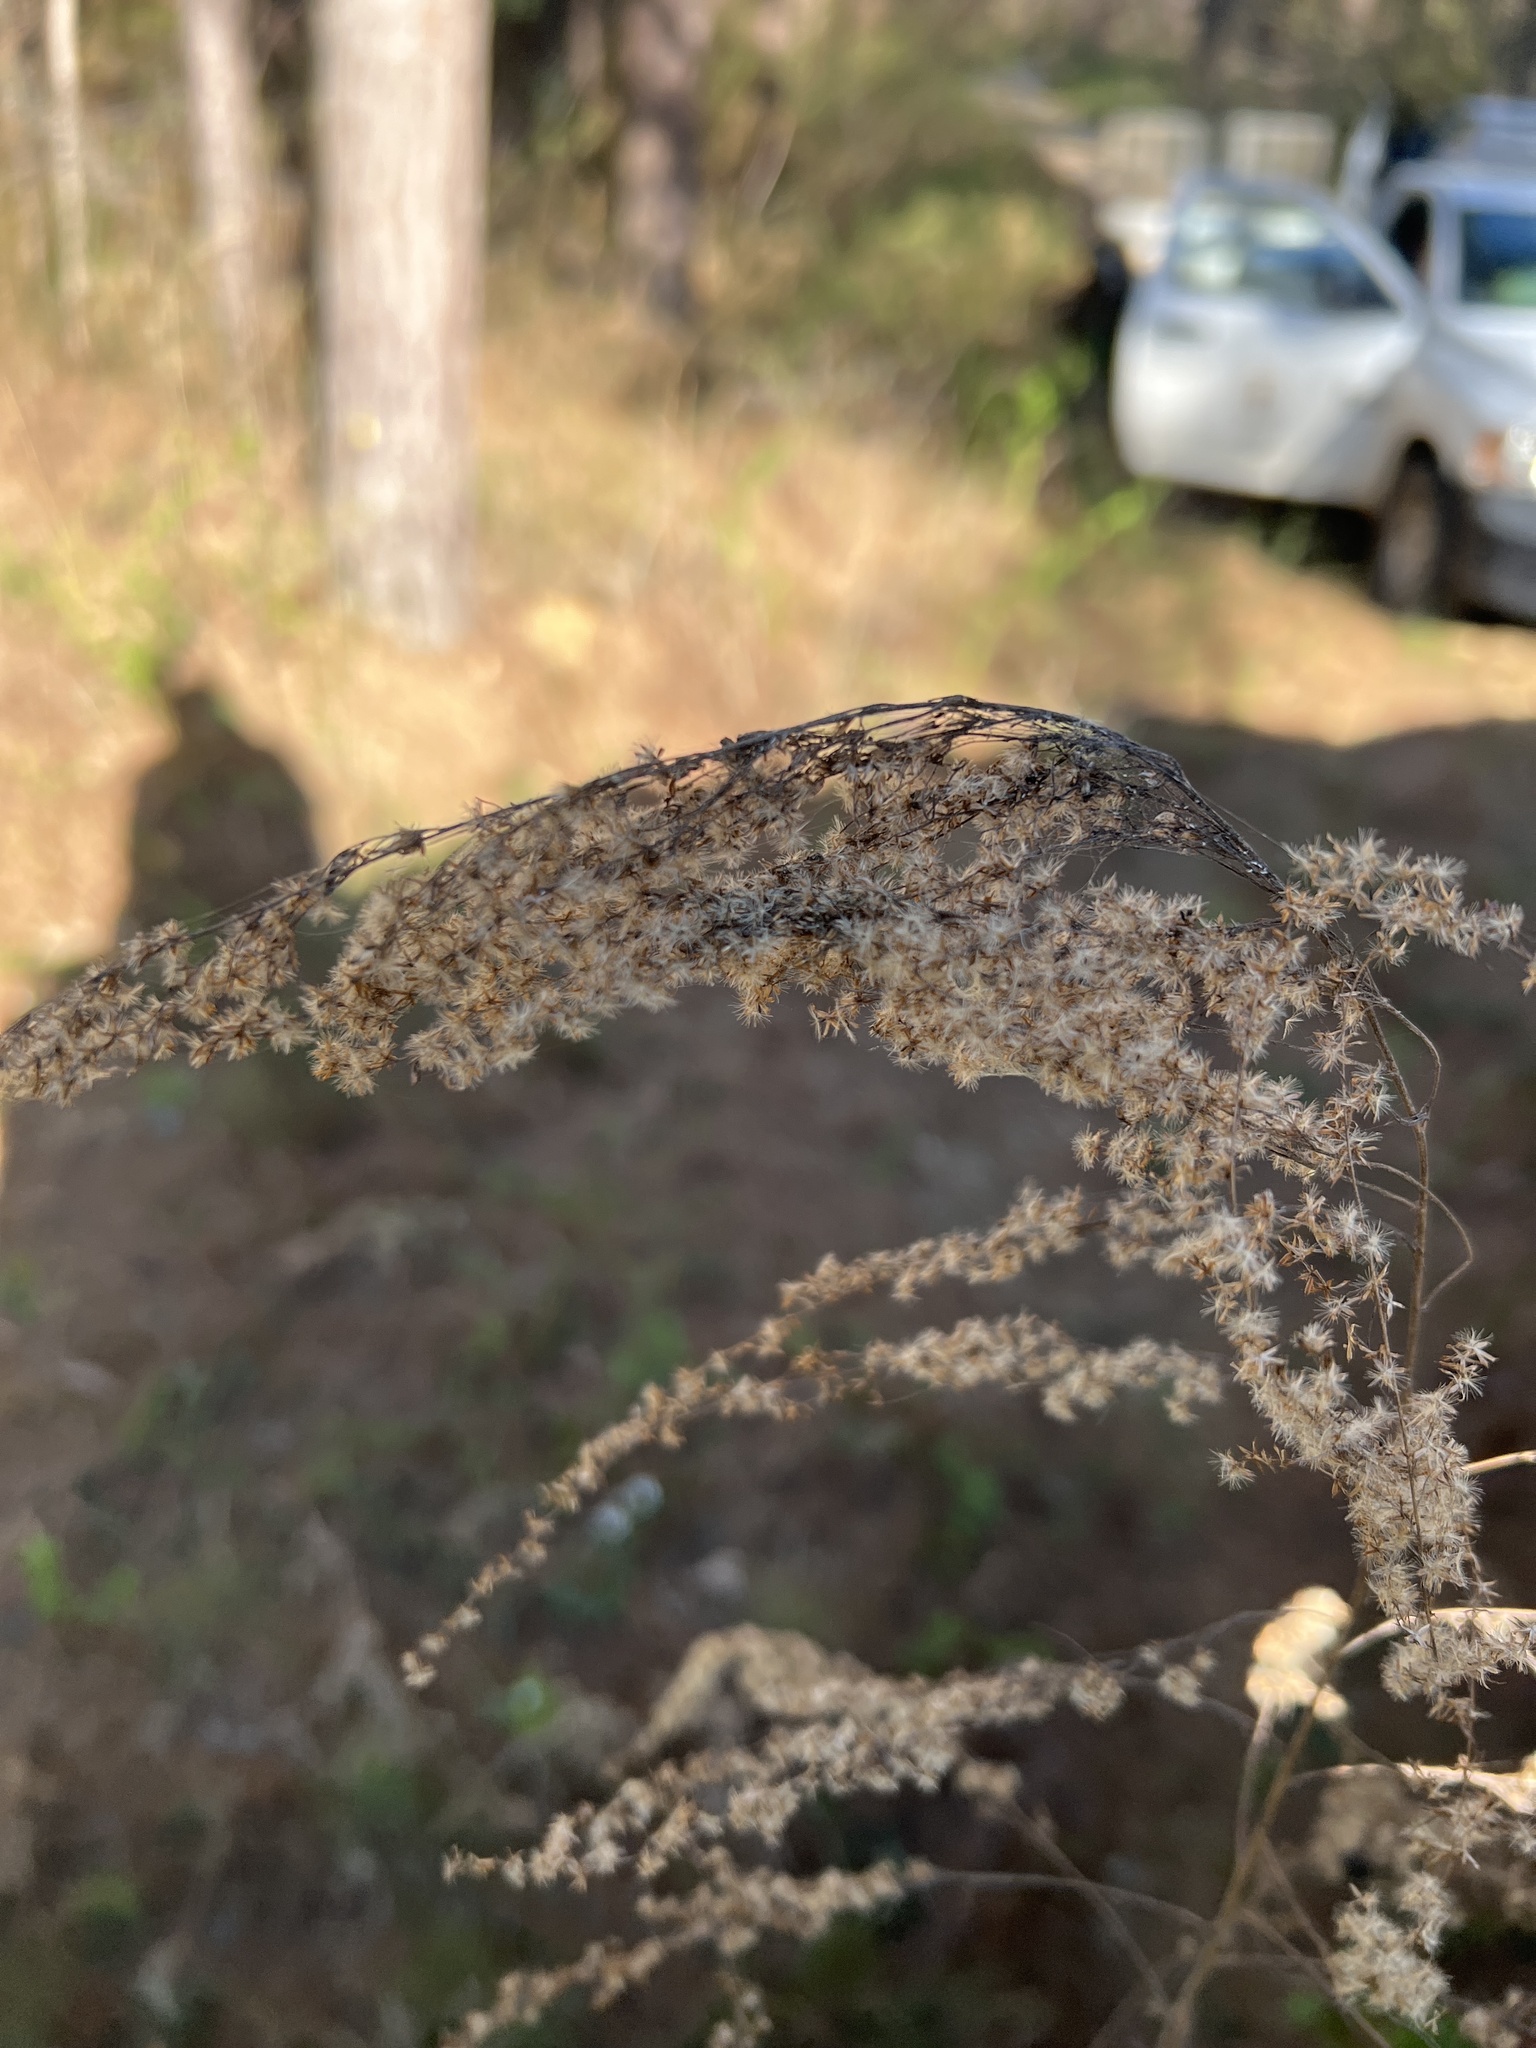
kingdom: Plantae
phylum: Tracheophyta
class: Magnoliopsida
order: Asterales
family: Asteraceae
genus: Eupatorium
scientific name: Eupatorium capillifolium
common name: Dog-fennel
